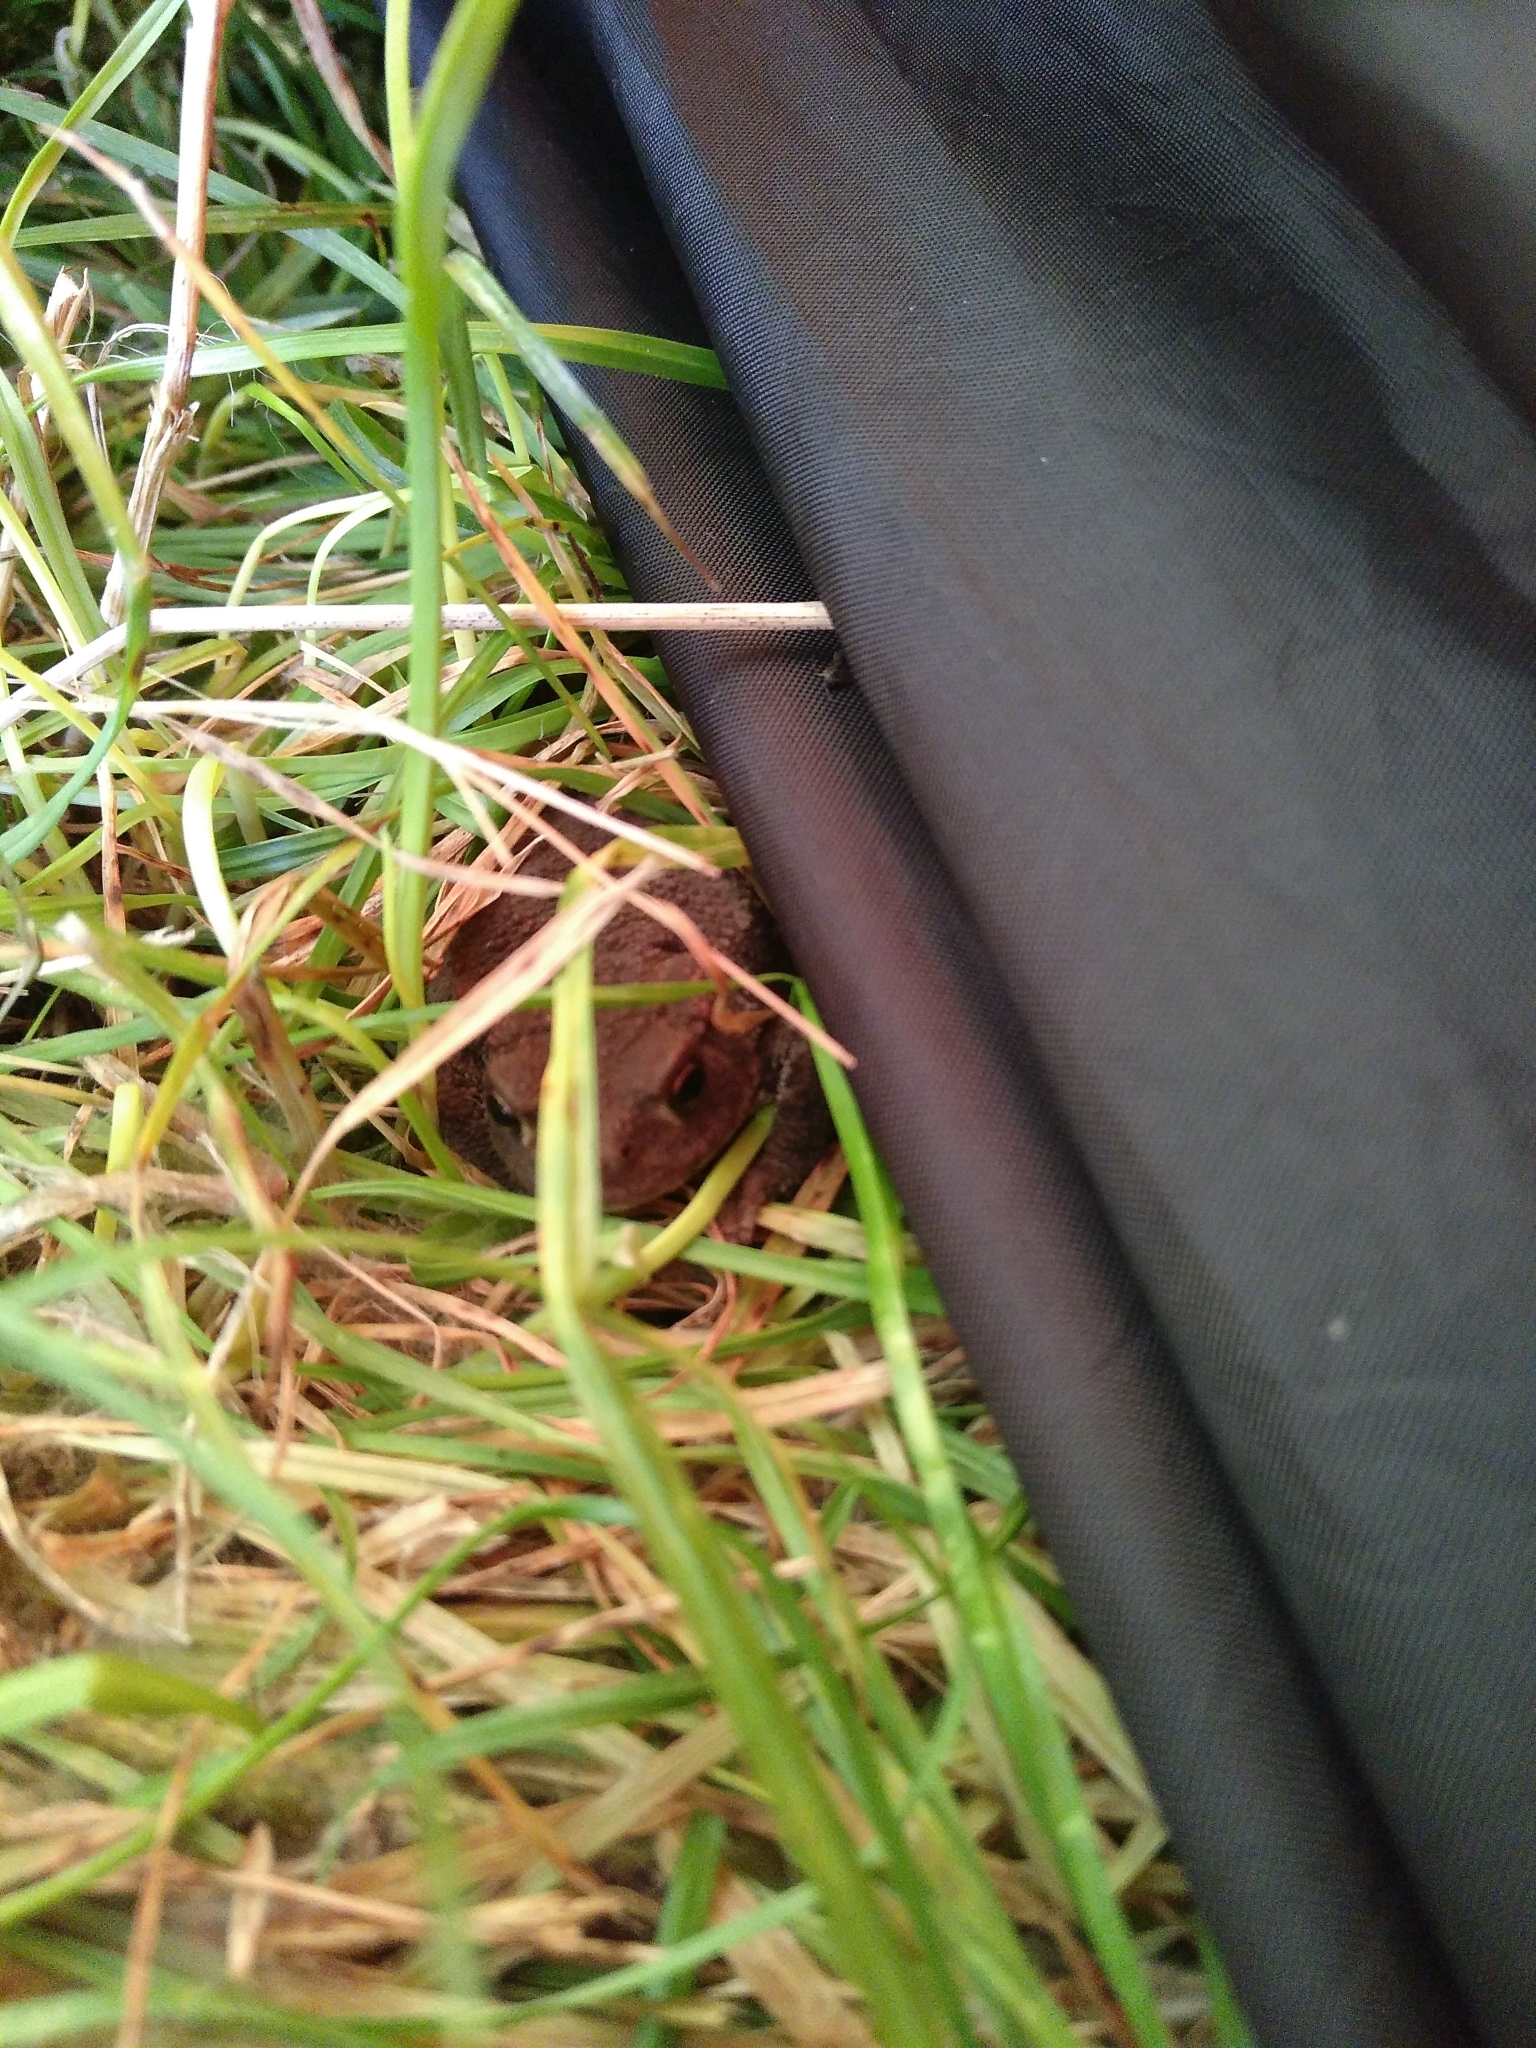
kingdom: Animalia
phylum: Chordata
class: Amphibia
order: Anura
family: Bufonidae
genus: Bufo
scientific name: Bufo bufo
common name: Common toad
